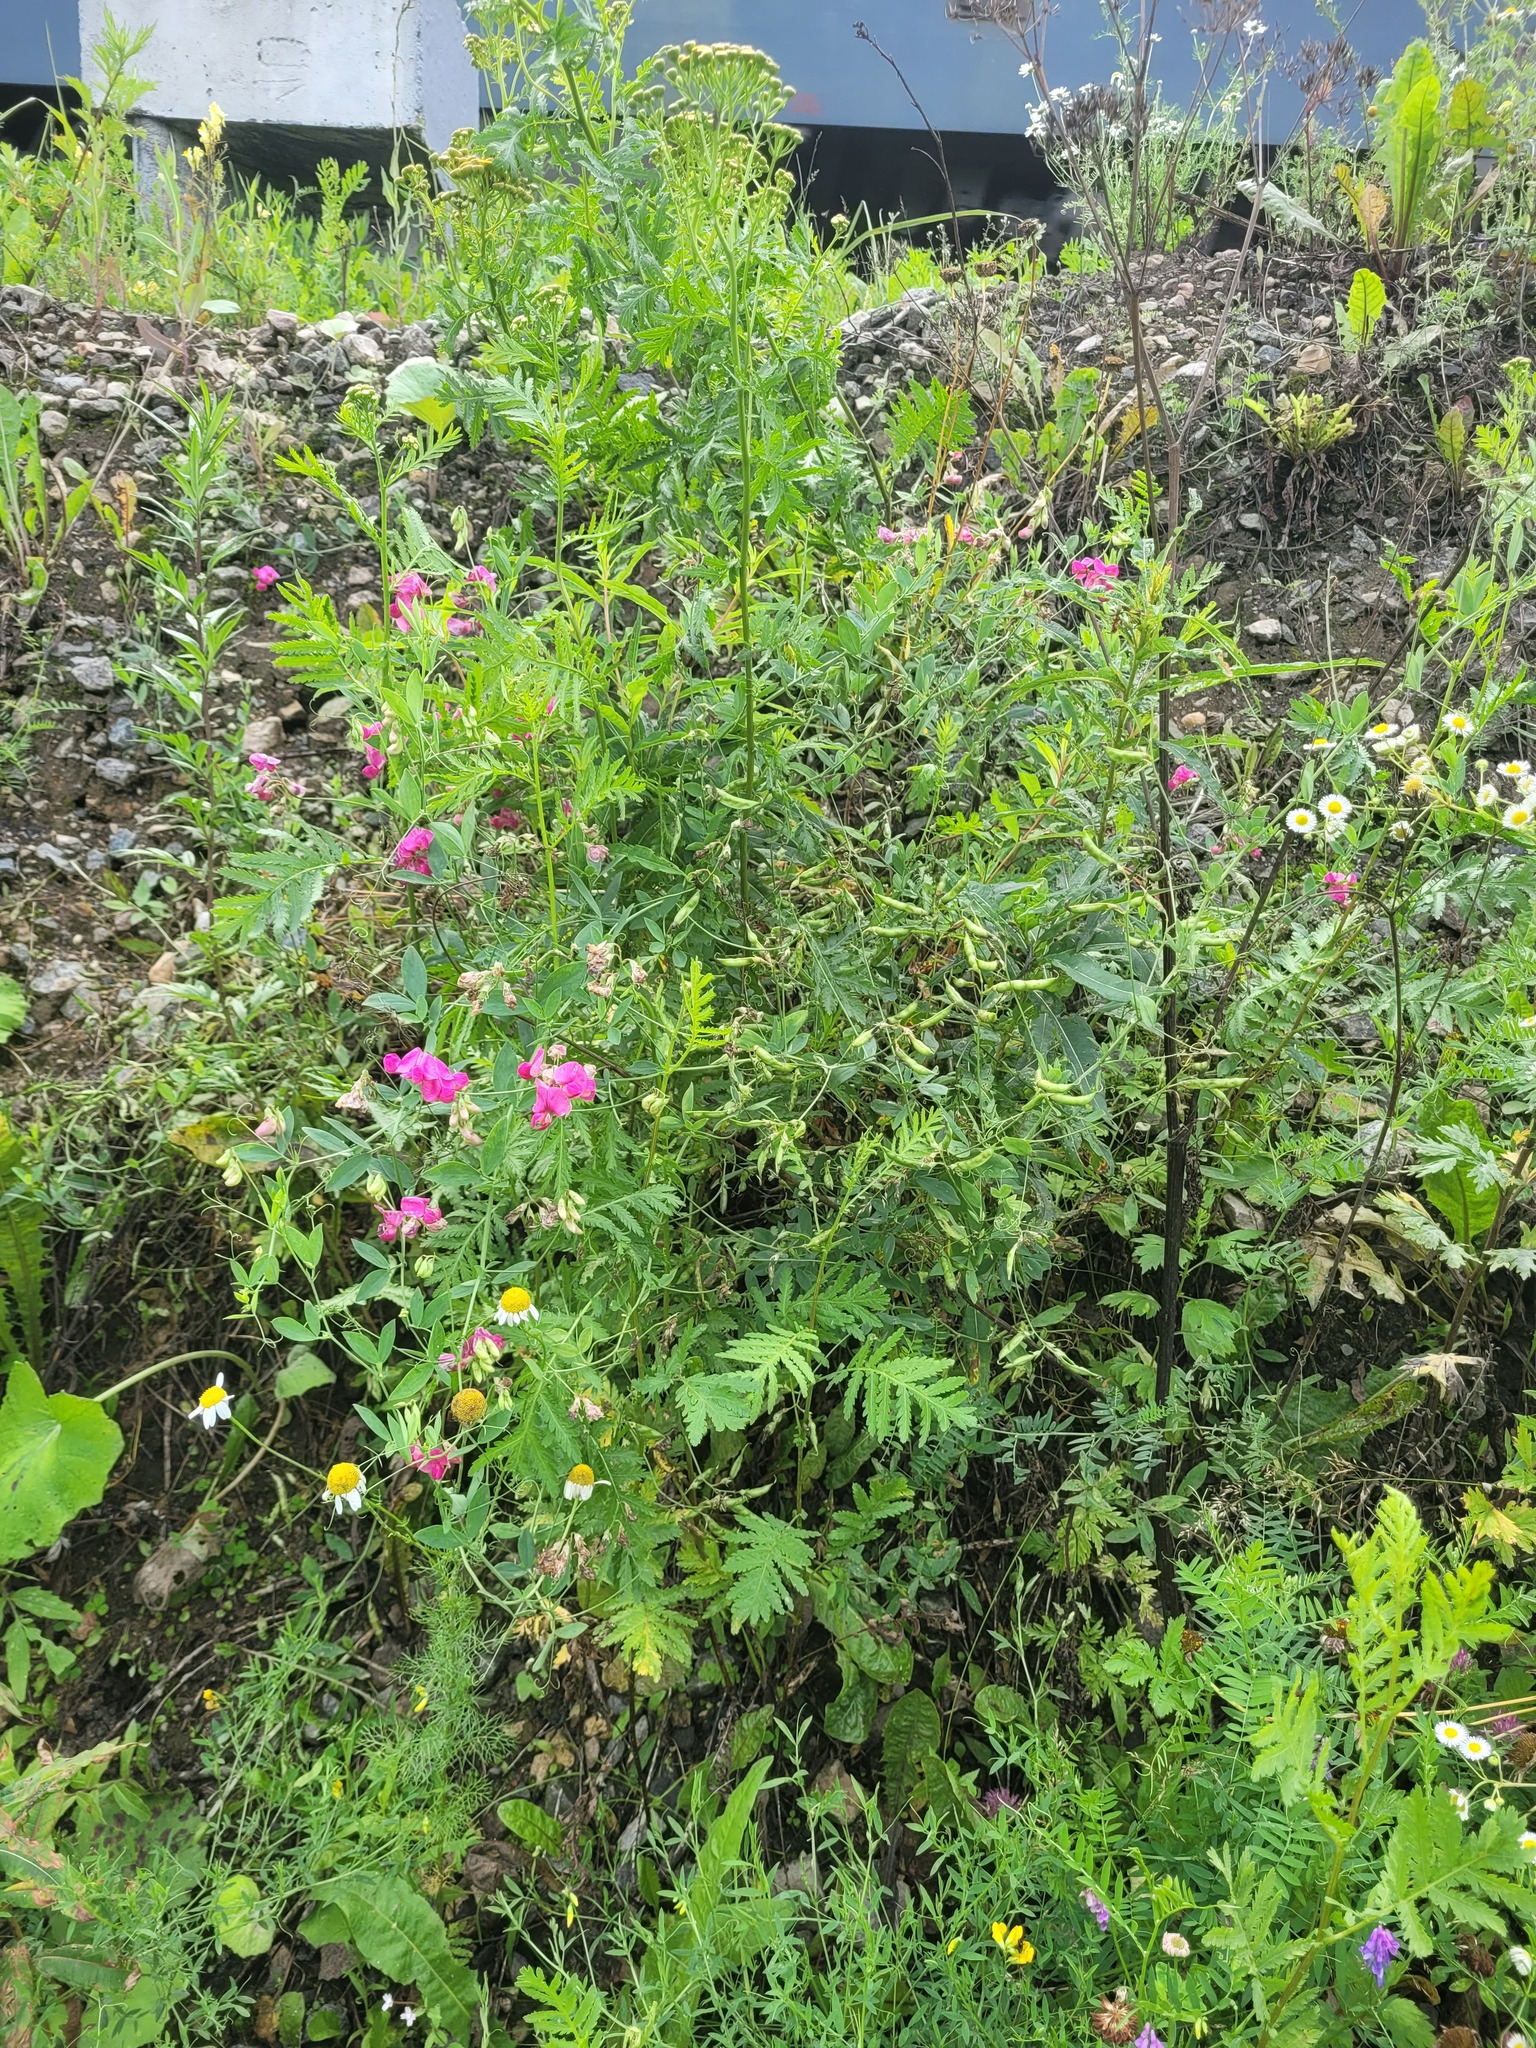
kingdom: Plantae
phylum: Tracheophyta
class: Magnoliopsida
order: Fabales
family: Fabaceae
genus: Lathyrus
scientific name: Lathyrus tuberosus
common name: Tuberous pea
